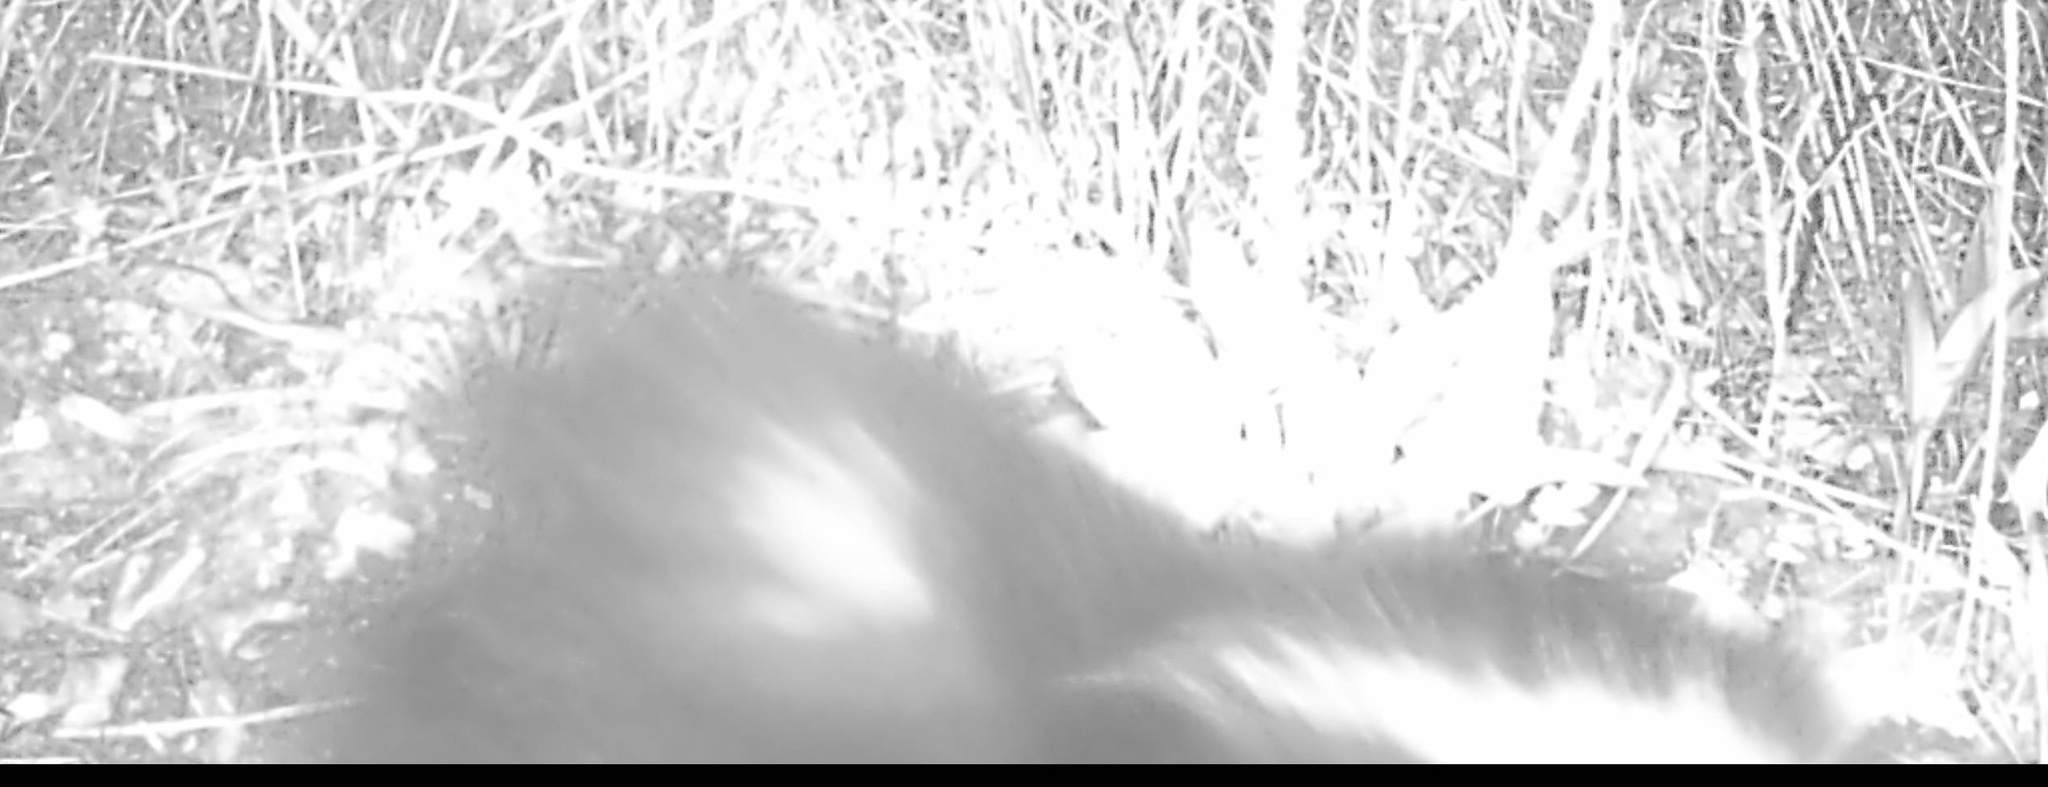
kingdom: Animalia
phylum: Chordata
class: Mammalia
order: Carnivora
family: Mephitidae
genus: Mephitis
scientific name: Mephitis mephitis
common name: Striped skunk
